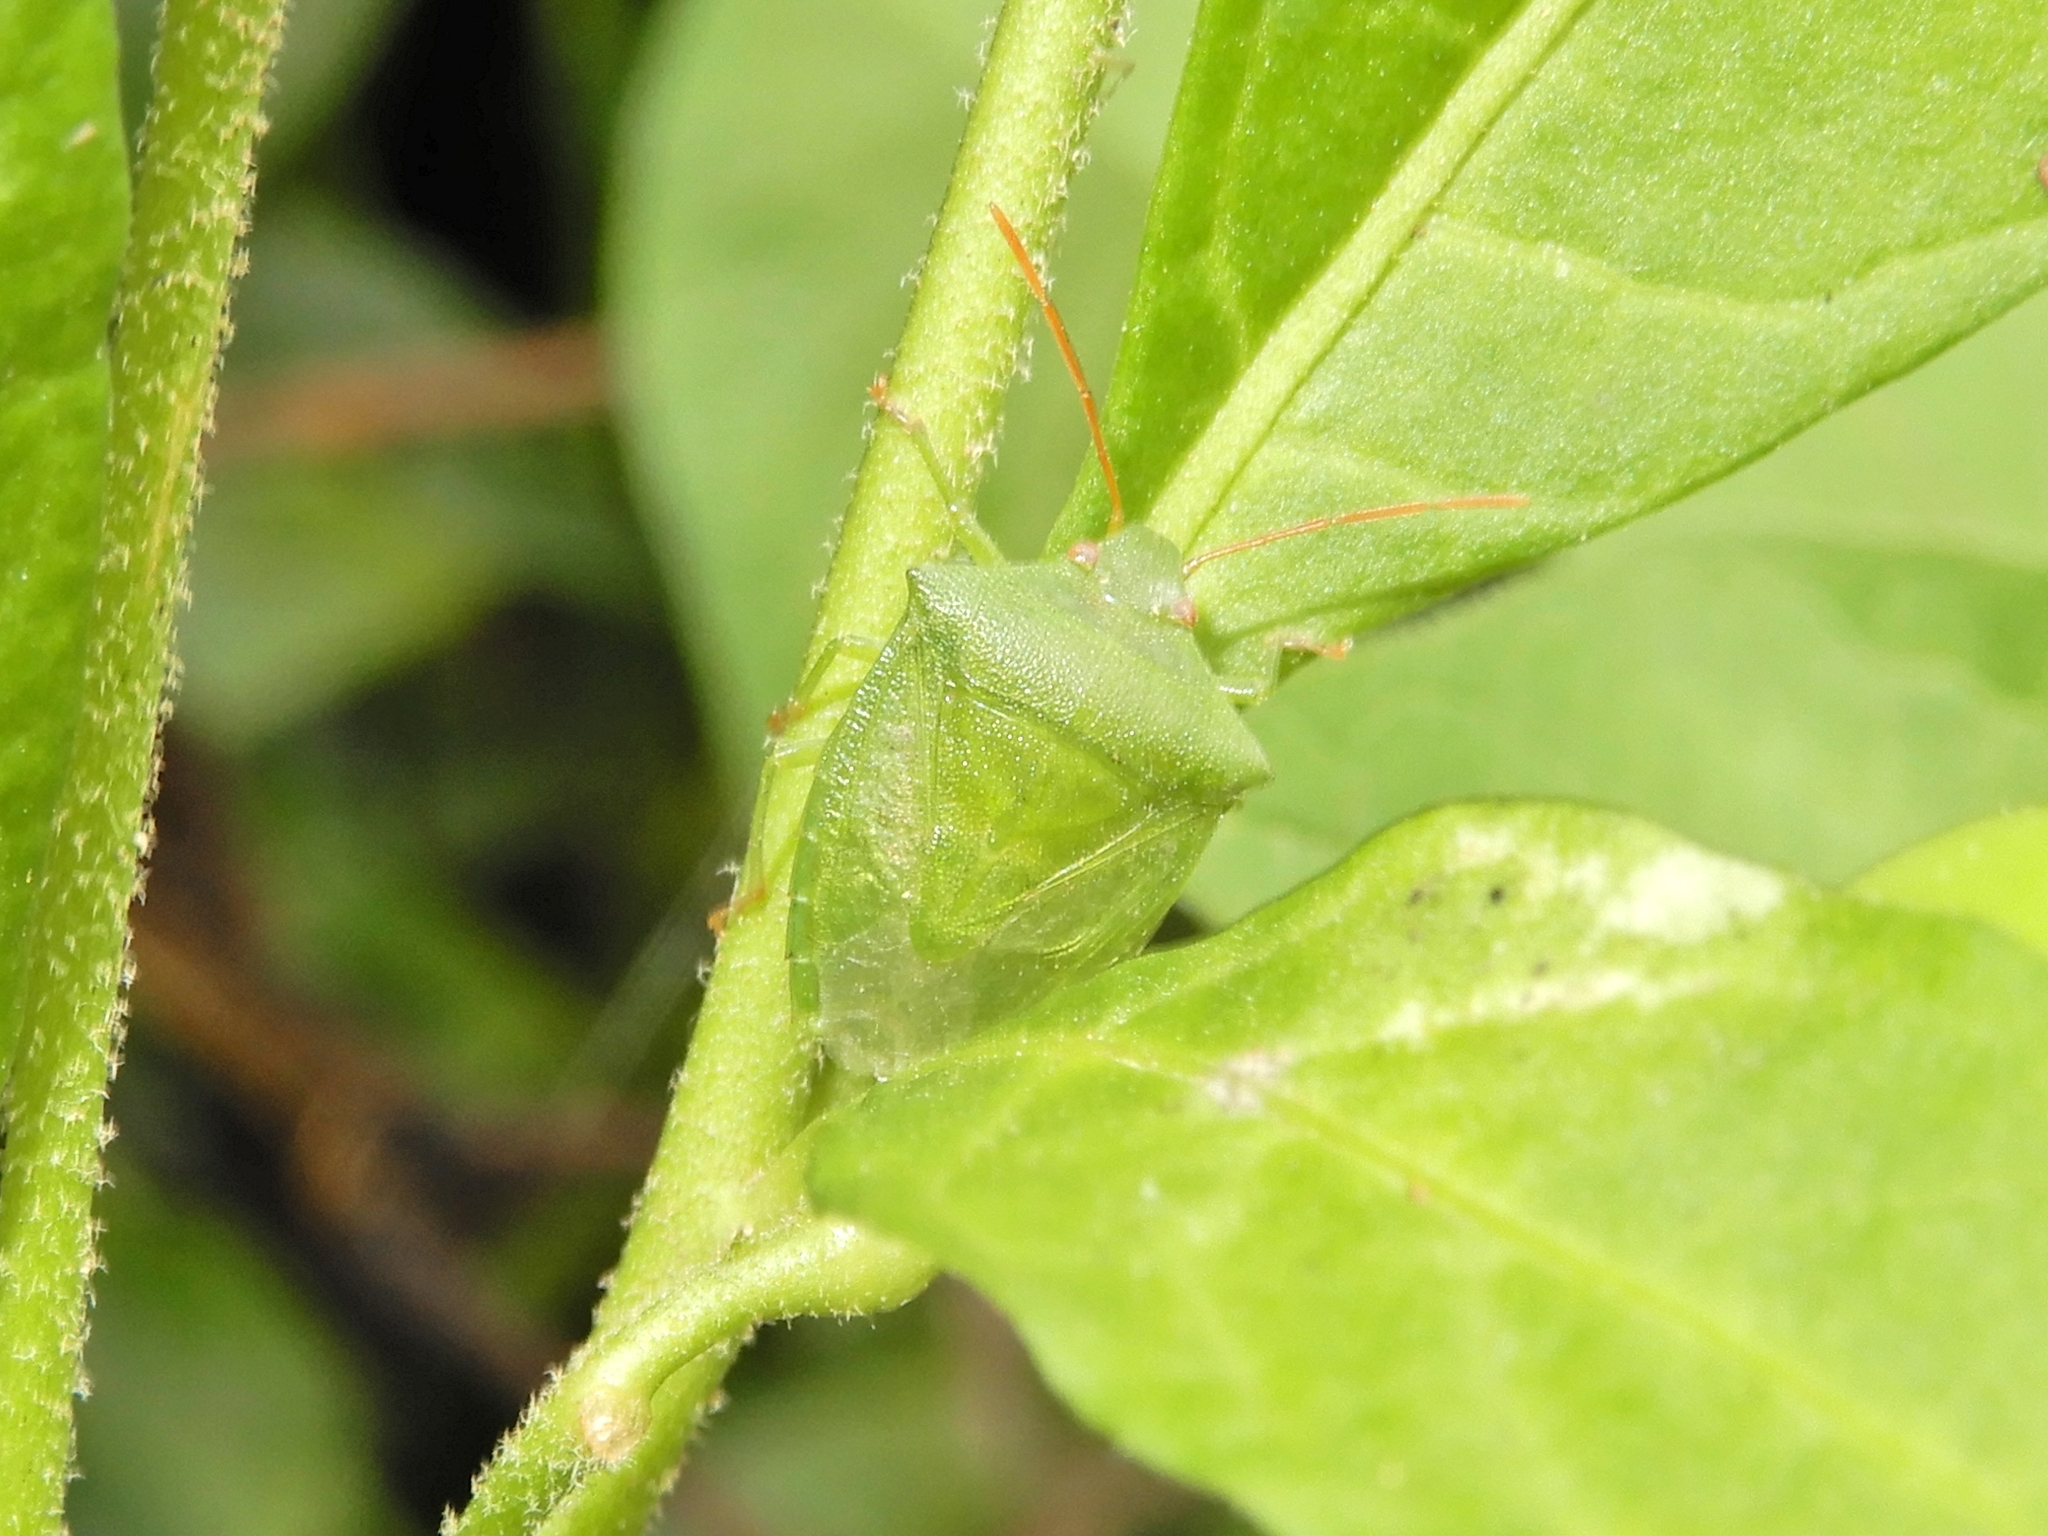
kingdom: Animalia
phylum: Arthropoda
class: Insecta
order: Hemiptera
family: Pentatomidae
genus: Cuspicona
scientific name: Cuspicona simplex
